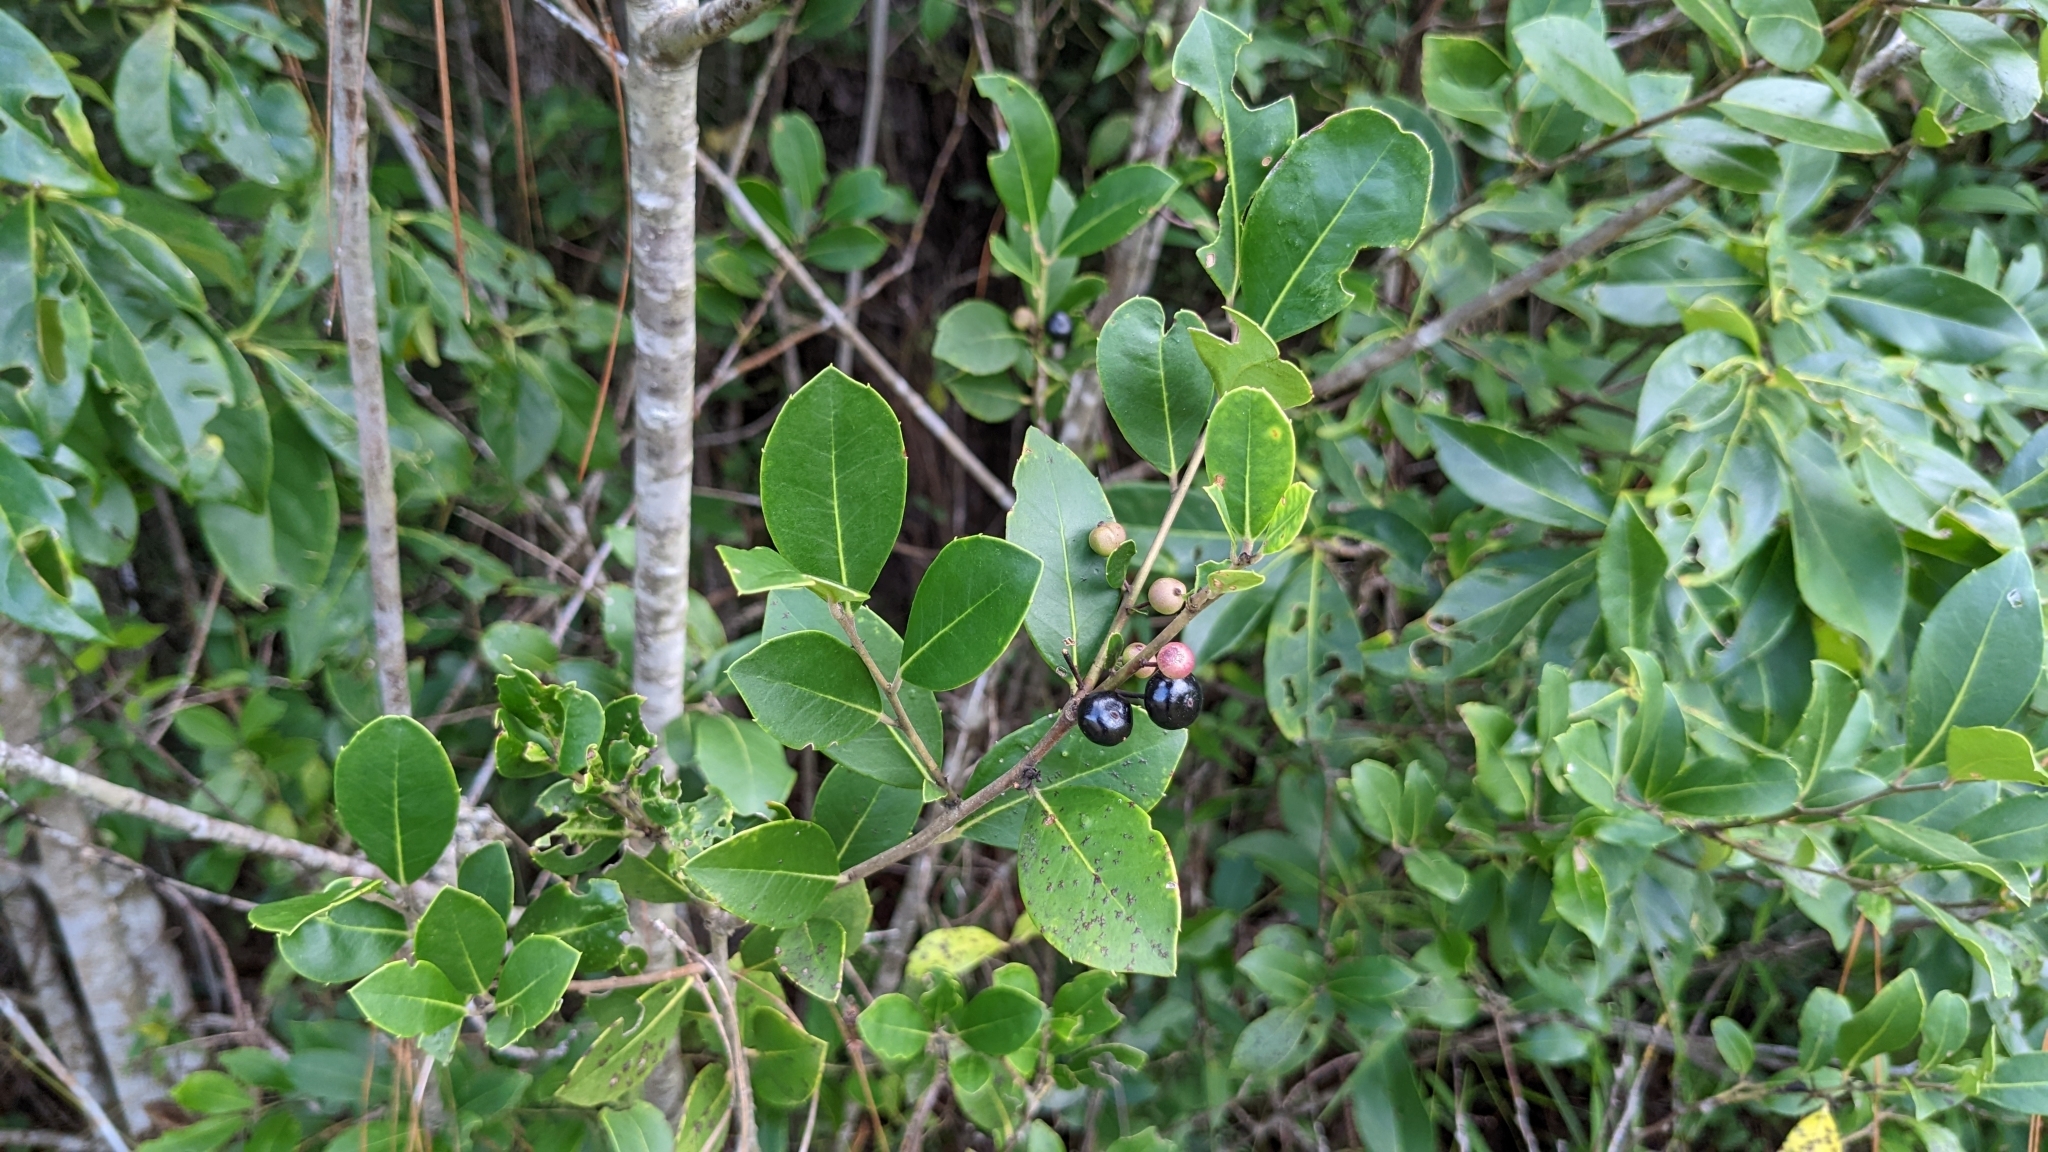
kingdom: Plantae
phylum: Tracheophyta
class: Magnoliopsida
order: Aquifoliales
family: Aquifoliaceae
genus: Ilex
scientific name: Ilex coriacea
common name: Sweet gallberry
